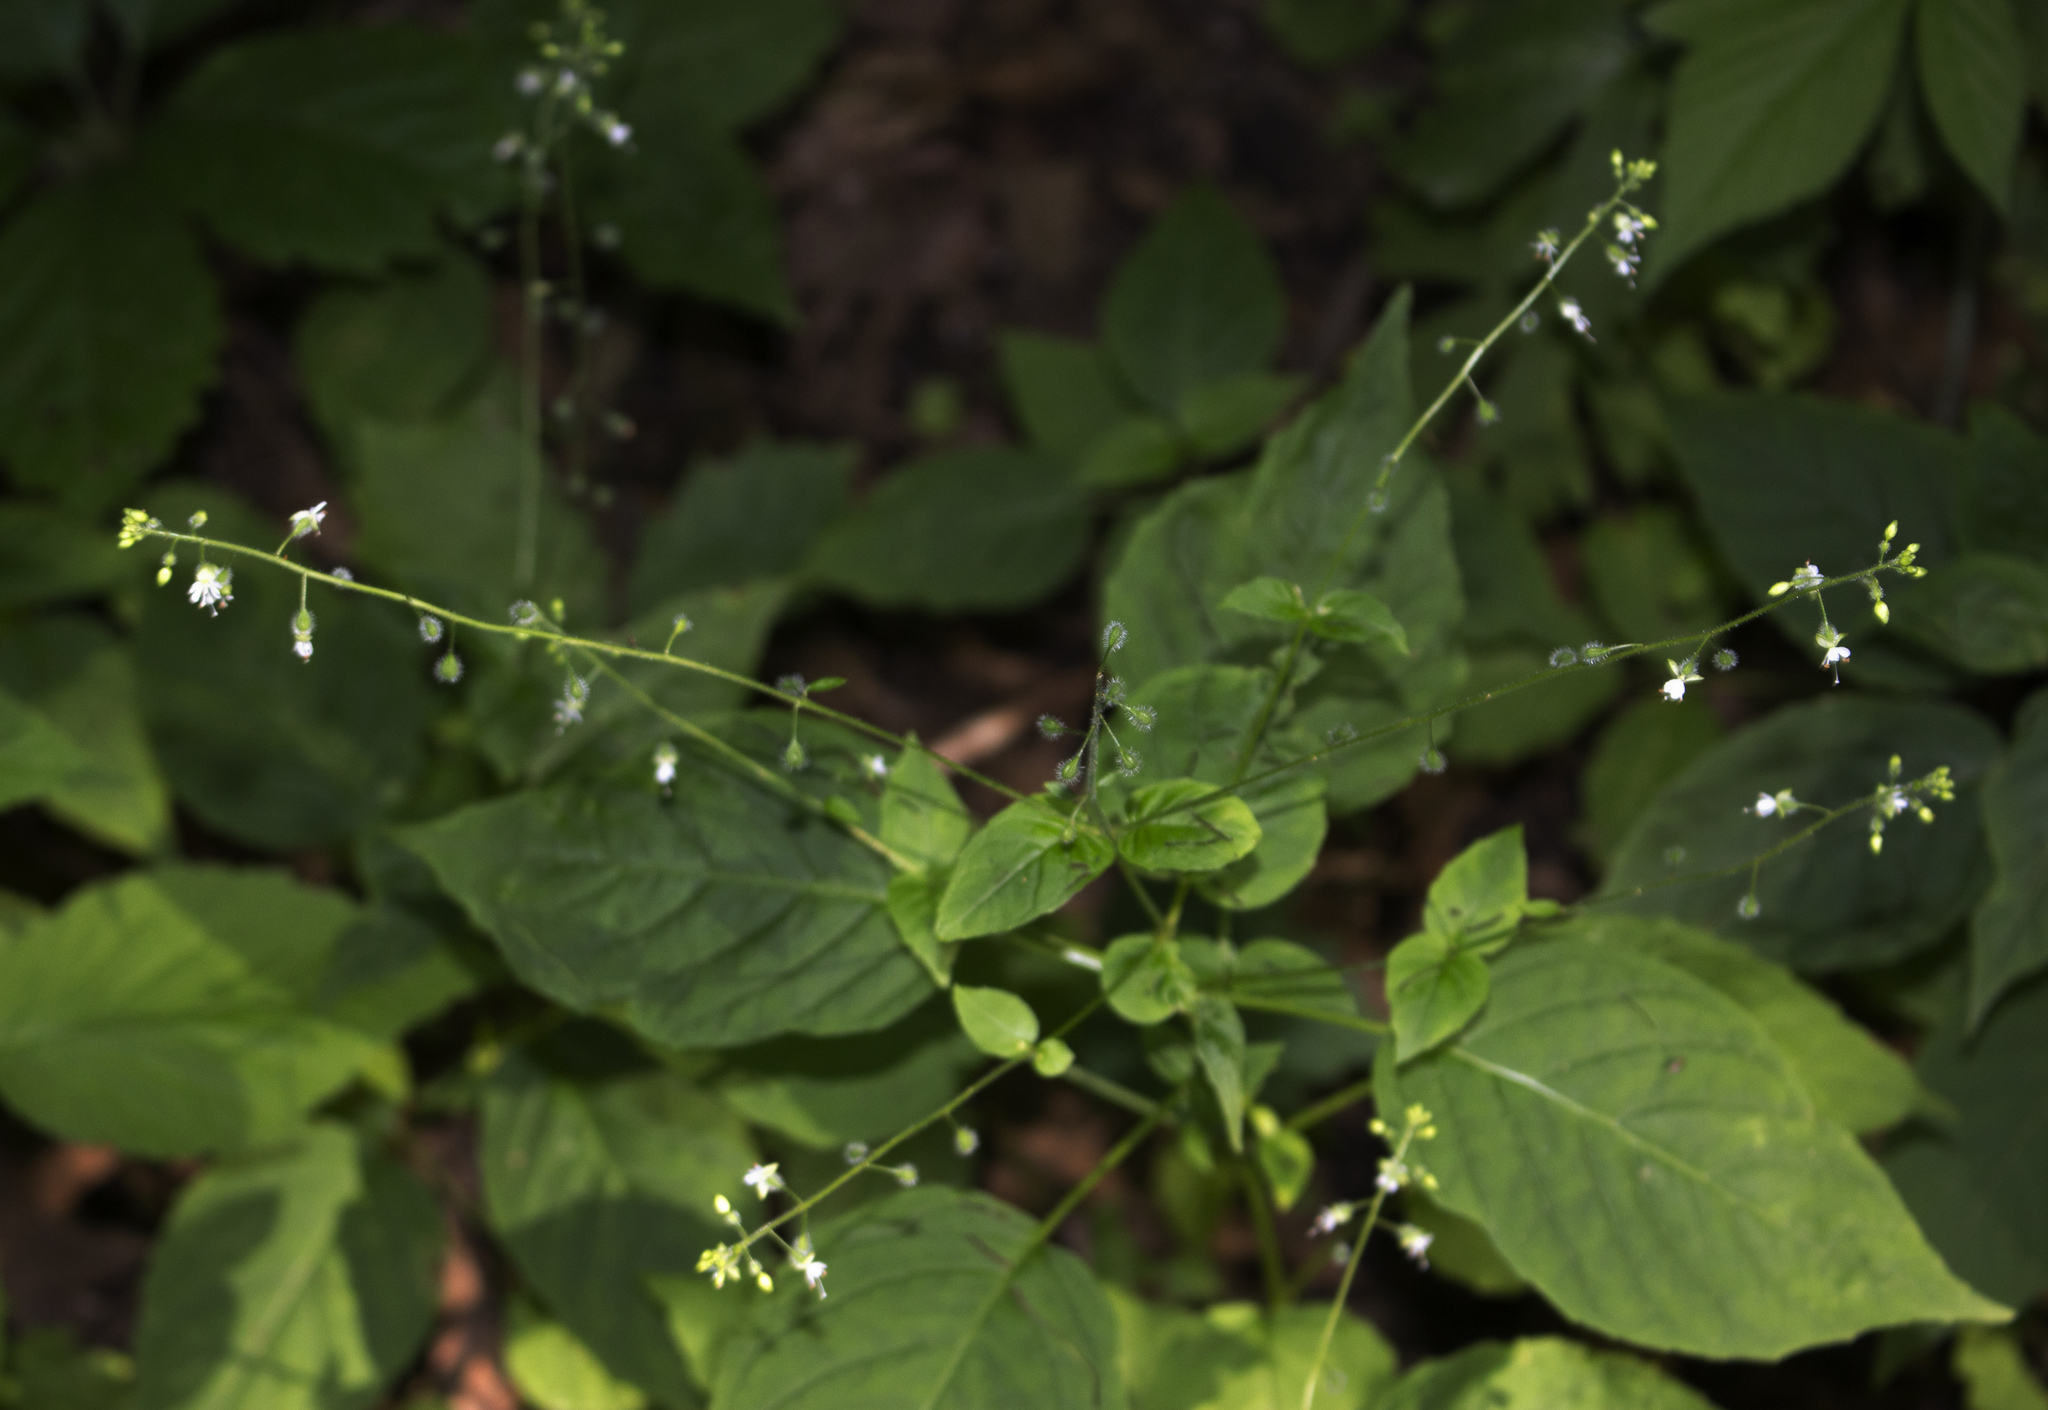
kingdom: Plantae
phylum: Tracheophyta
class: Magnoliopsida
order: Myrtales
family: Onagraceae
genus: Circaea
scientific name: Circaea canadensis
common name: Broad-leaved enchanter's nightshade
